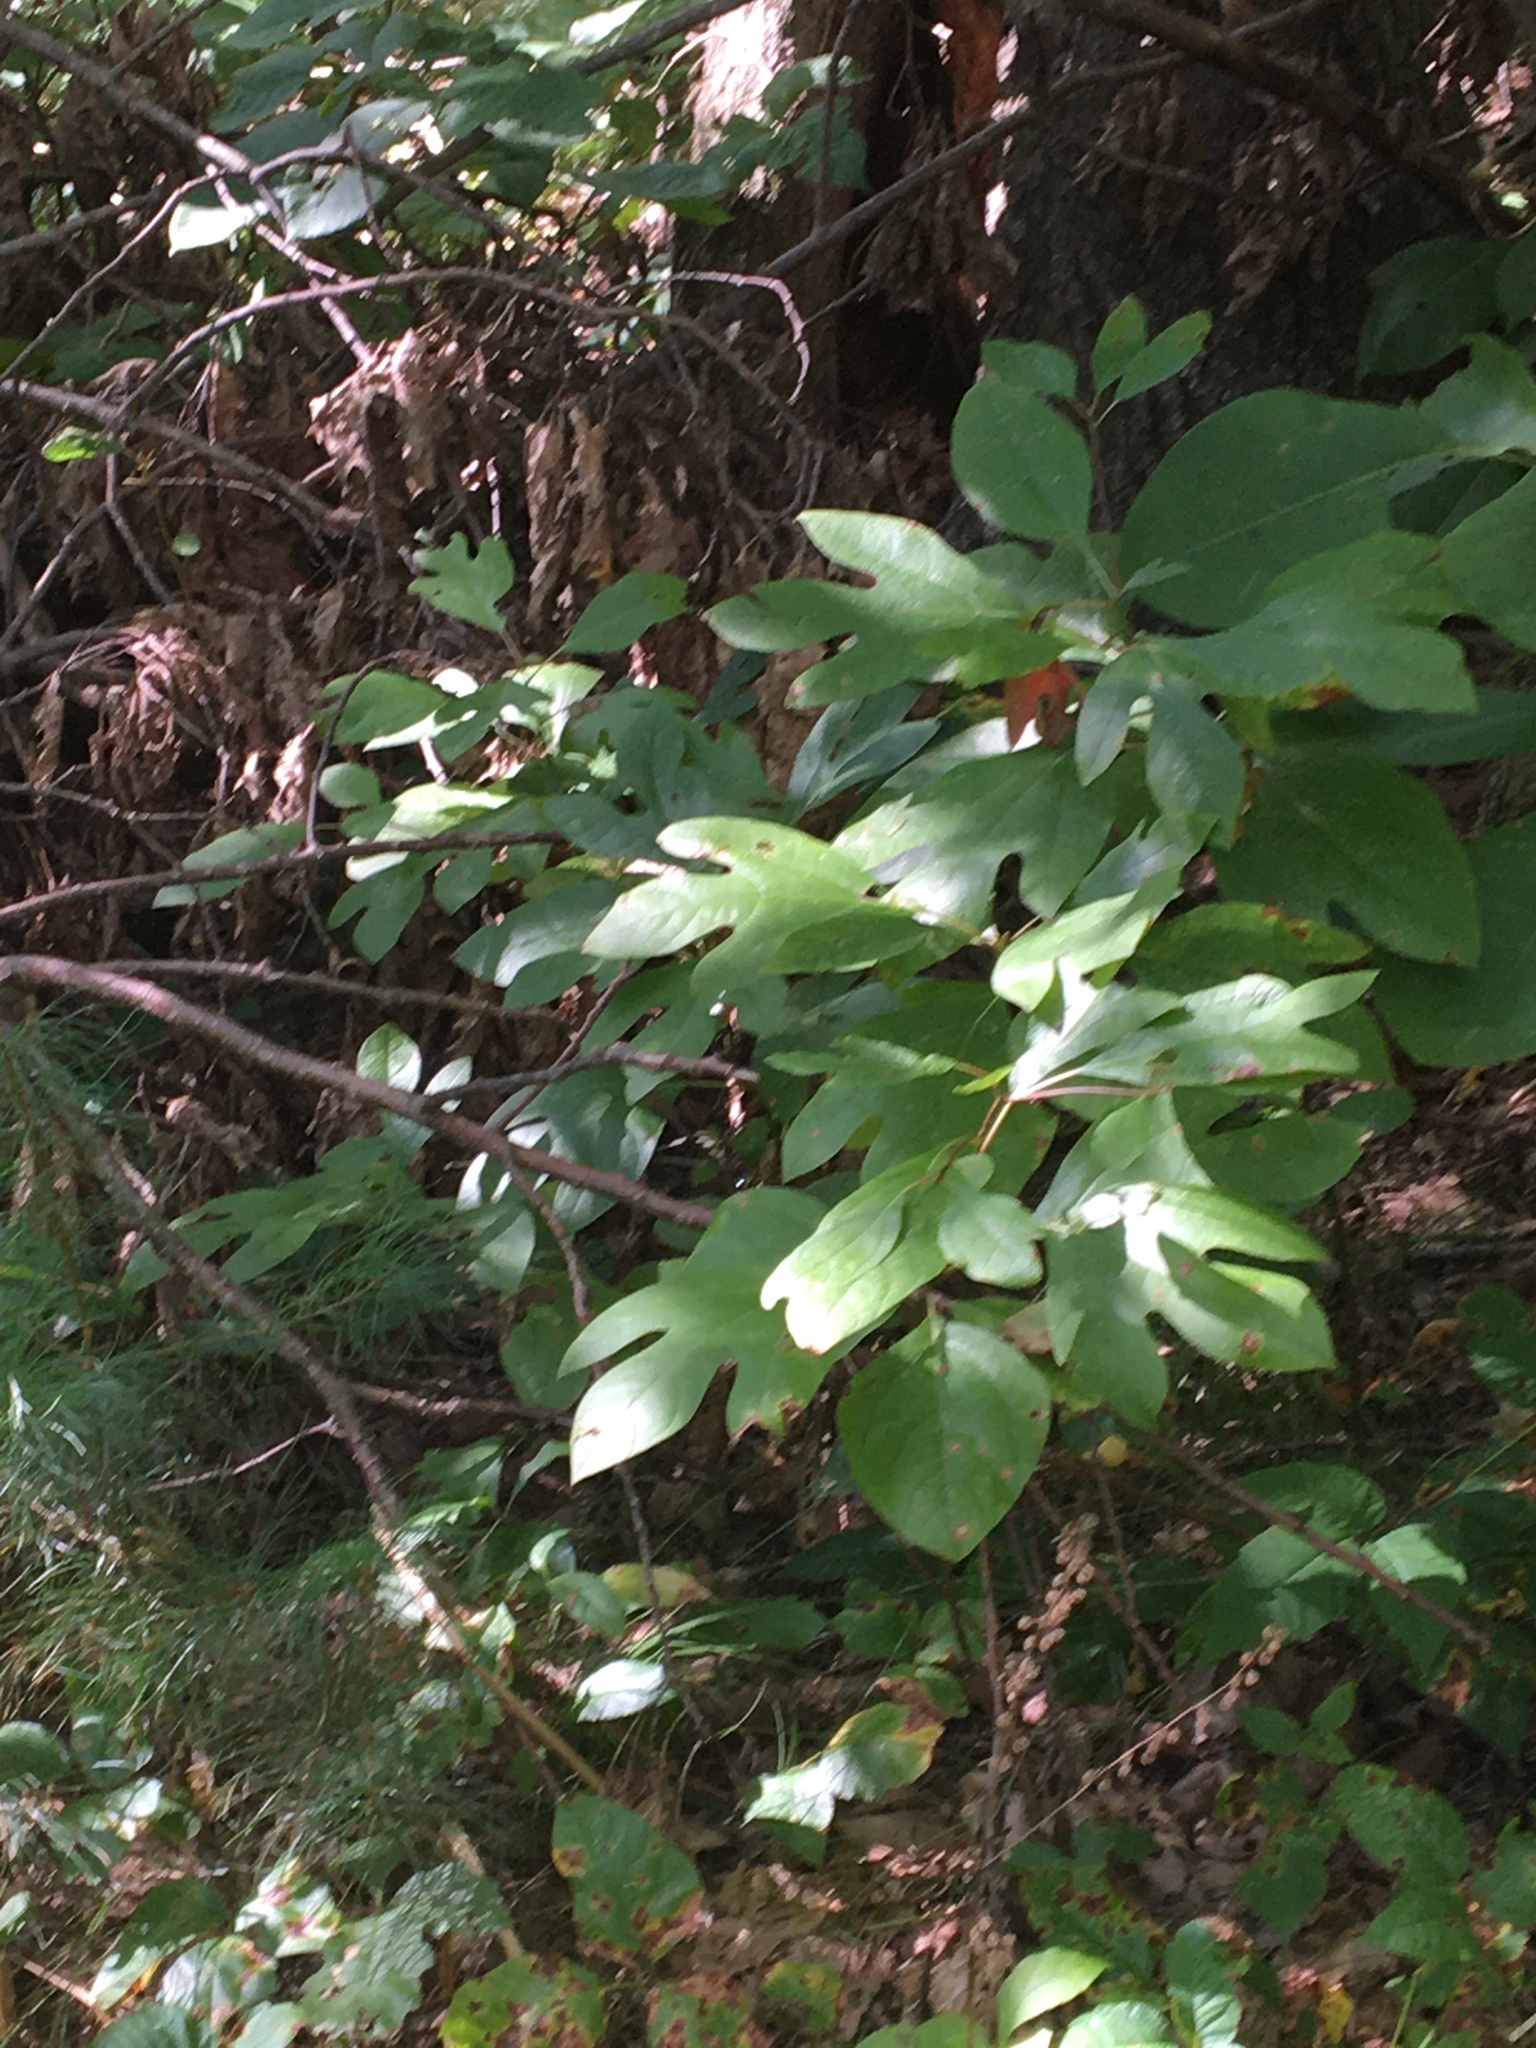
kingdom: Plantae
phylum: Tracheophyta
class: Magnoliopsida
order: Laurales
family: Lauraceae
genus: Sassafras
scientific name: Sassafras albidum
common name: Sassafras
